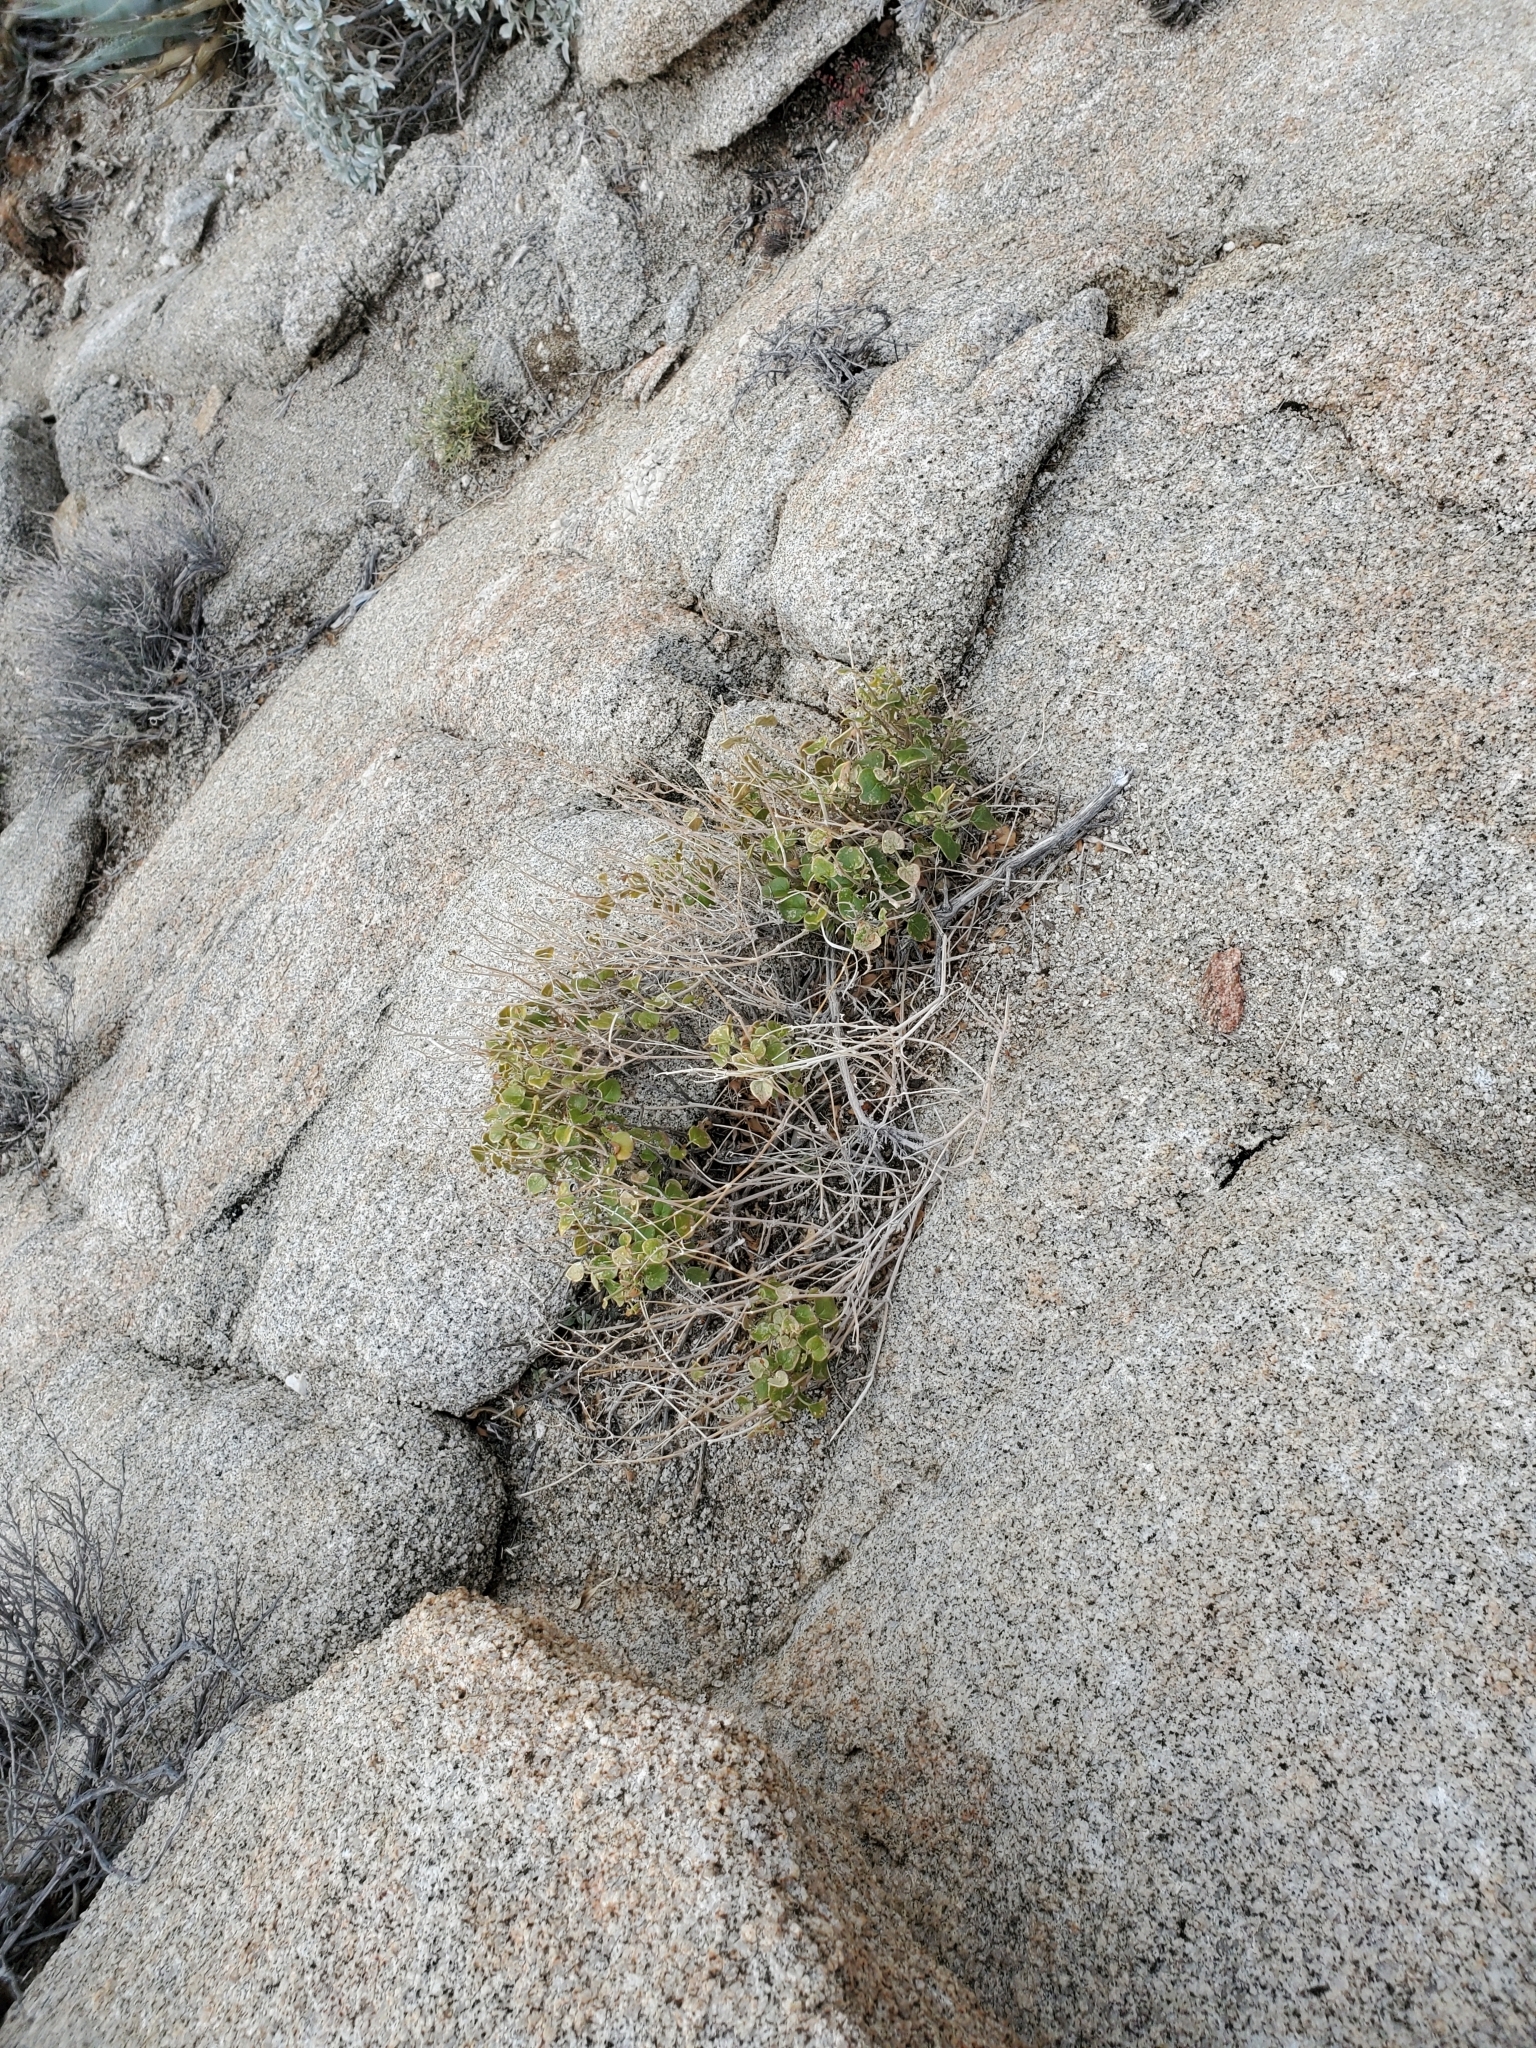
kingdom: Plantae
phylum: Tracheophyta
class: Magnoliopsida
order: Caryophyllales
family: Nyctaginaceae
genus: Mirabilis
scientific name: Mirabilis laevis
